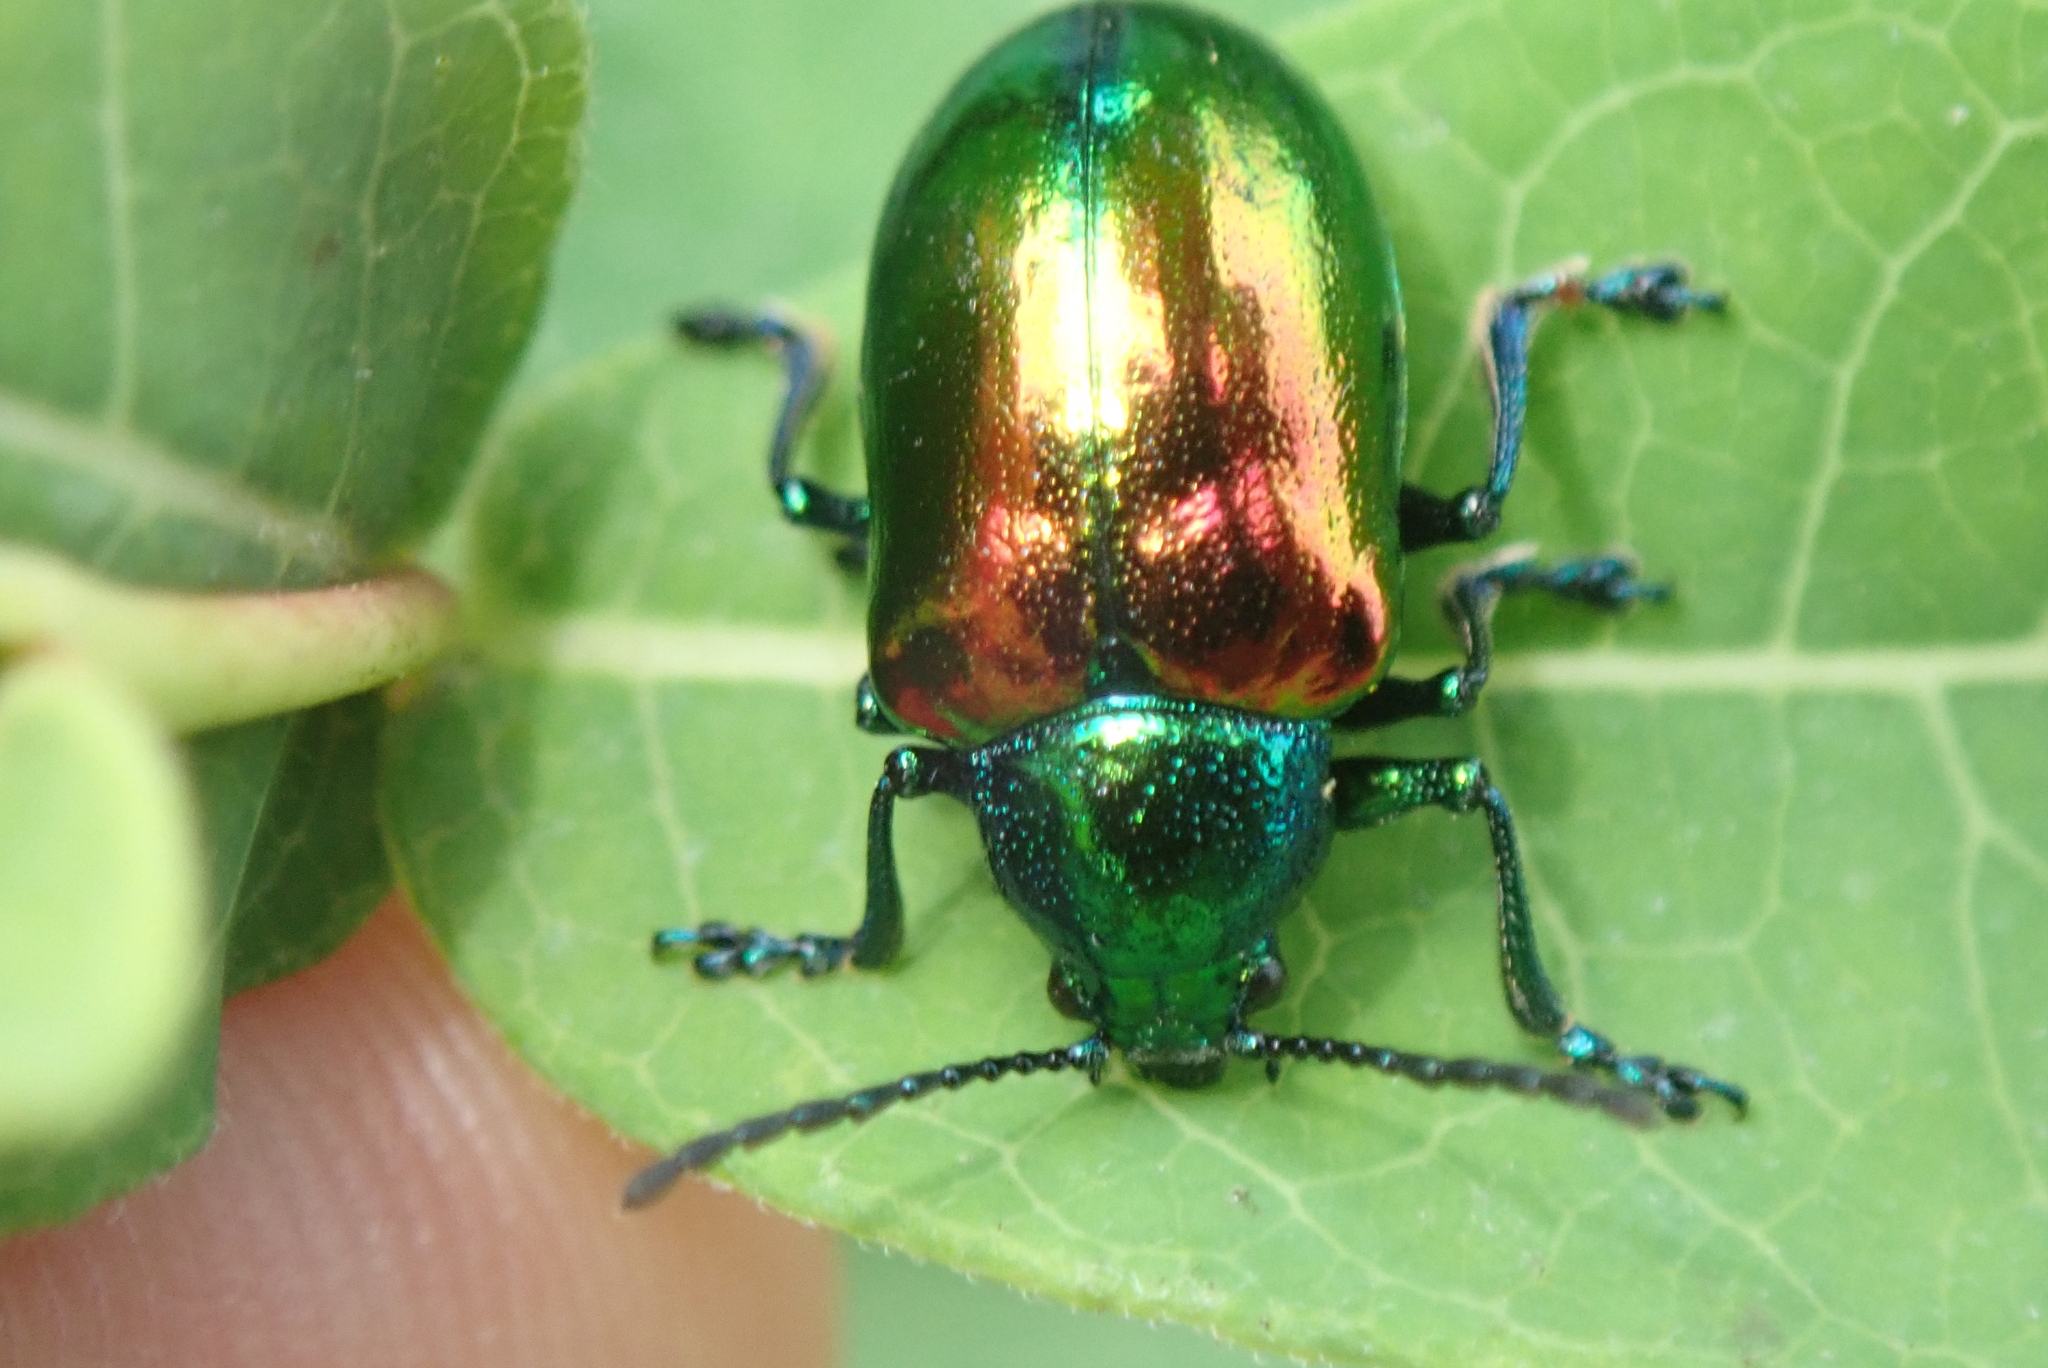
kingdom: Animalia
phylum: Arthropoda
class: Insecta
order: Coleoptera
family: Chrysomelidae
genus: Chrysochus
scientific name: Chrysochus auratus
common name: Dogbane leaf beetle
